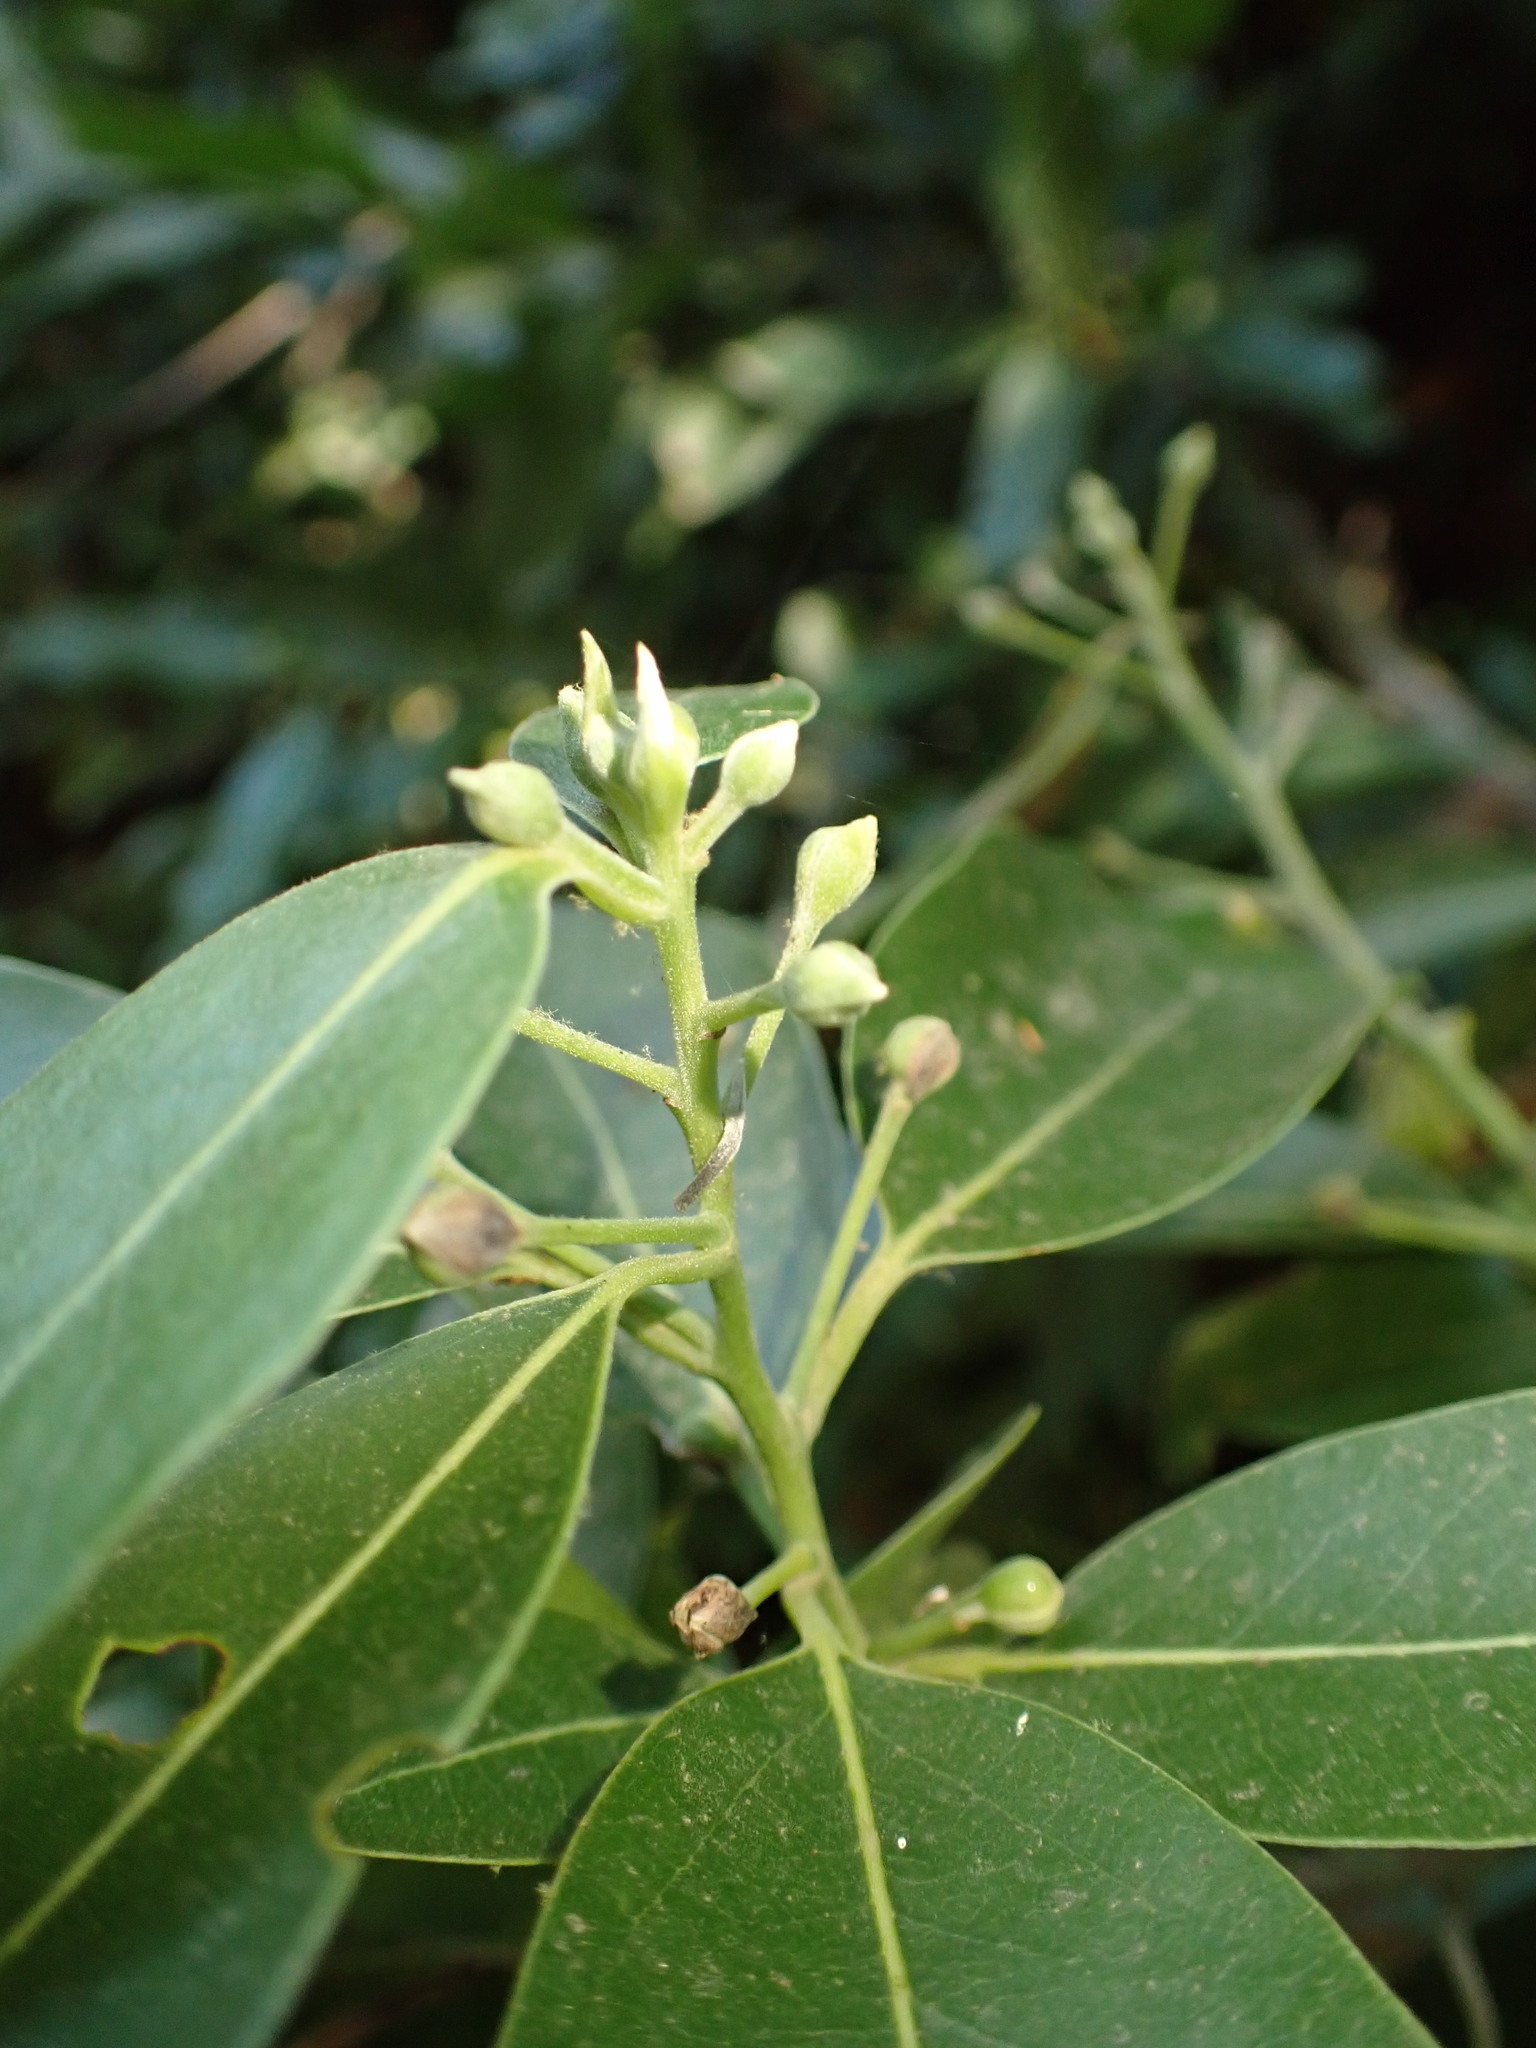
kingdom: Plantae
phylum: Tracheophyta
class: Magnoliopsida
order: Laurales
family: Lauraceae
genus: Umbellularia
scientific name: Umbellularia californica
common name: California bay
